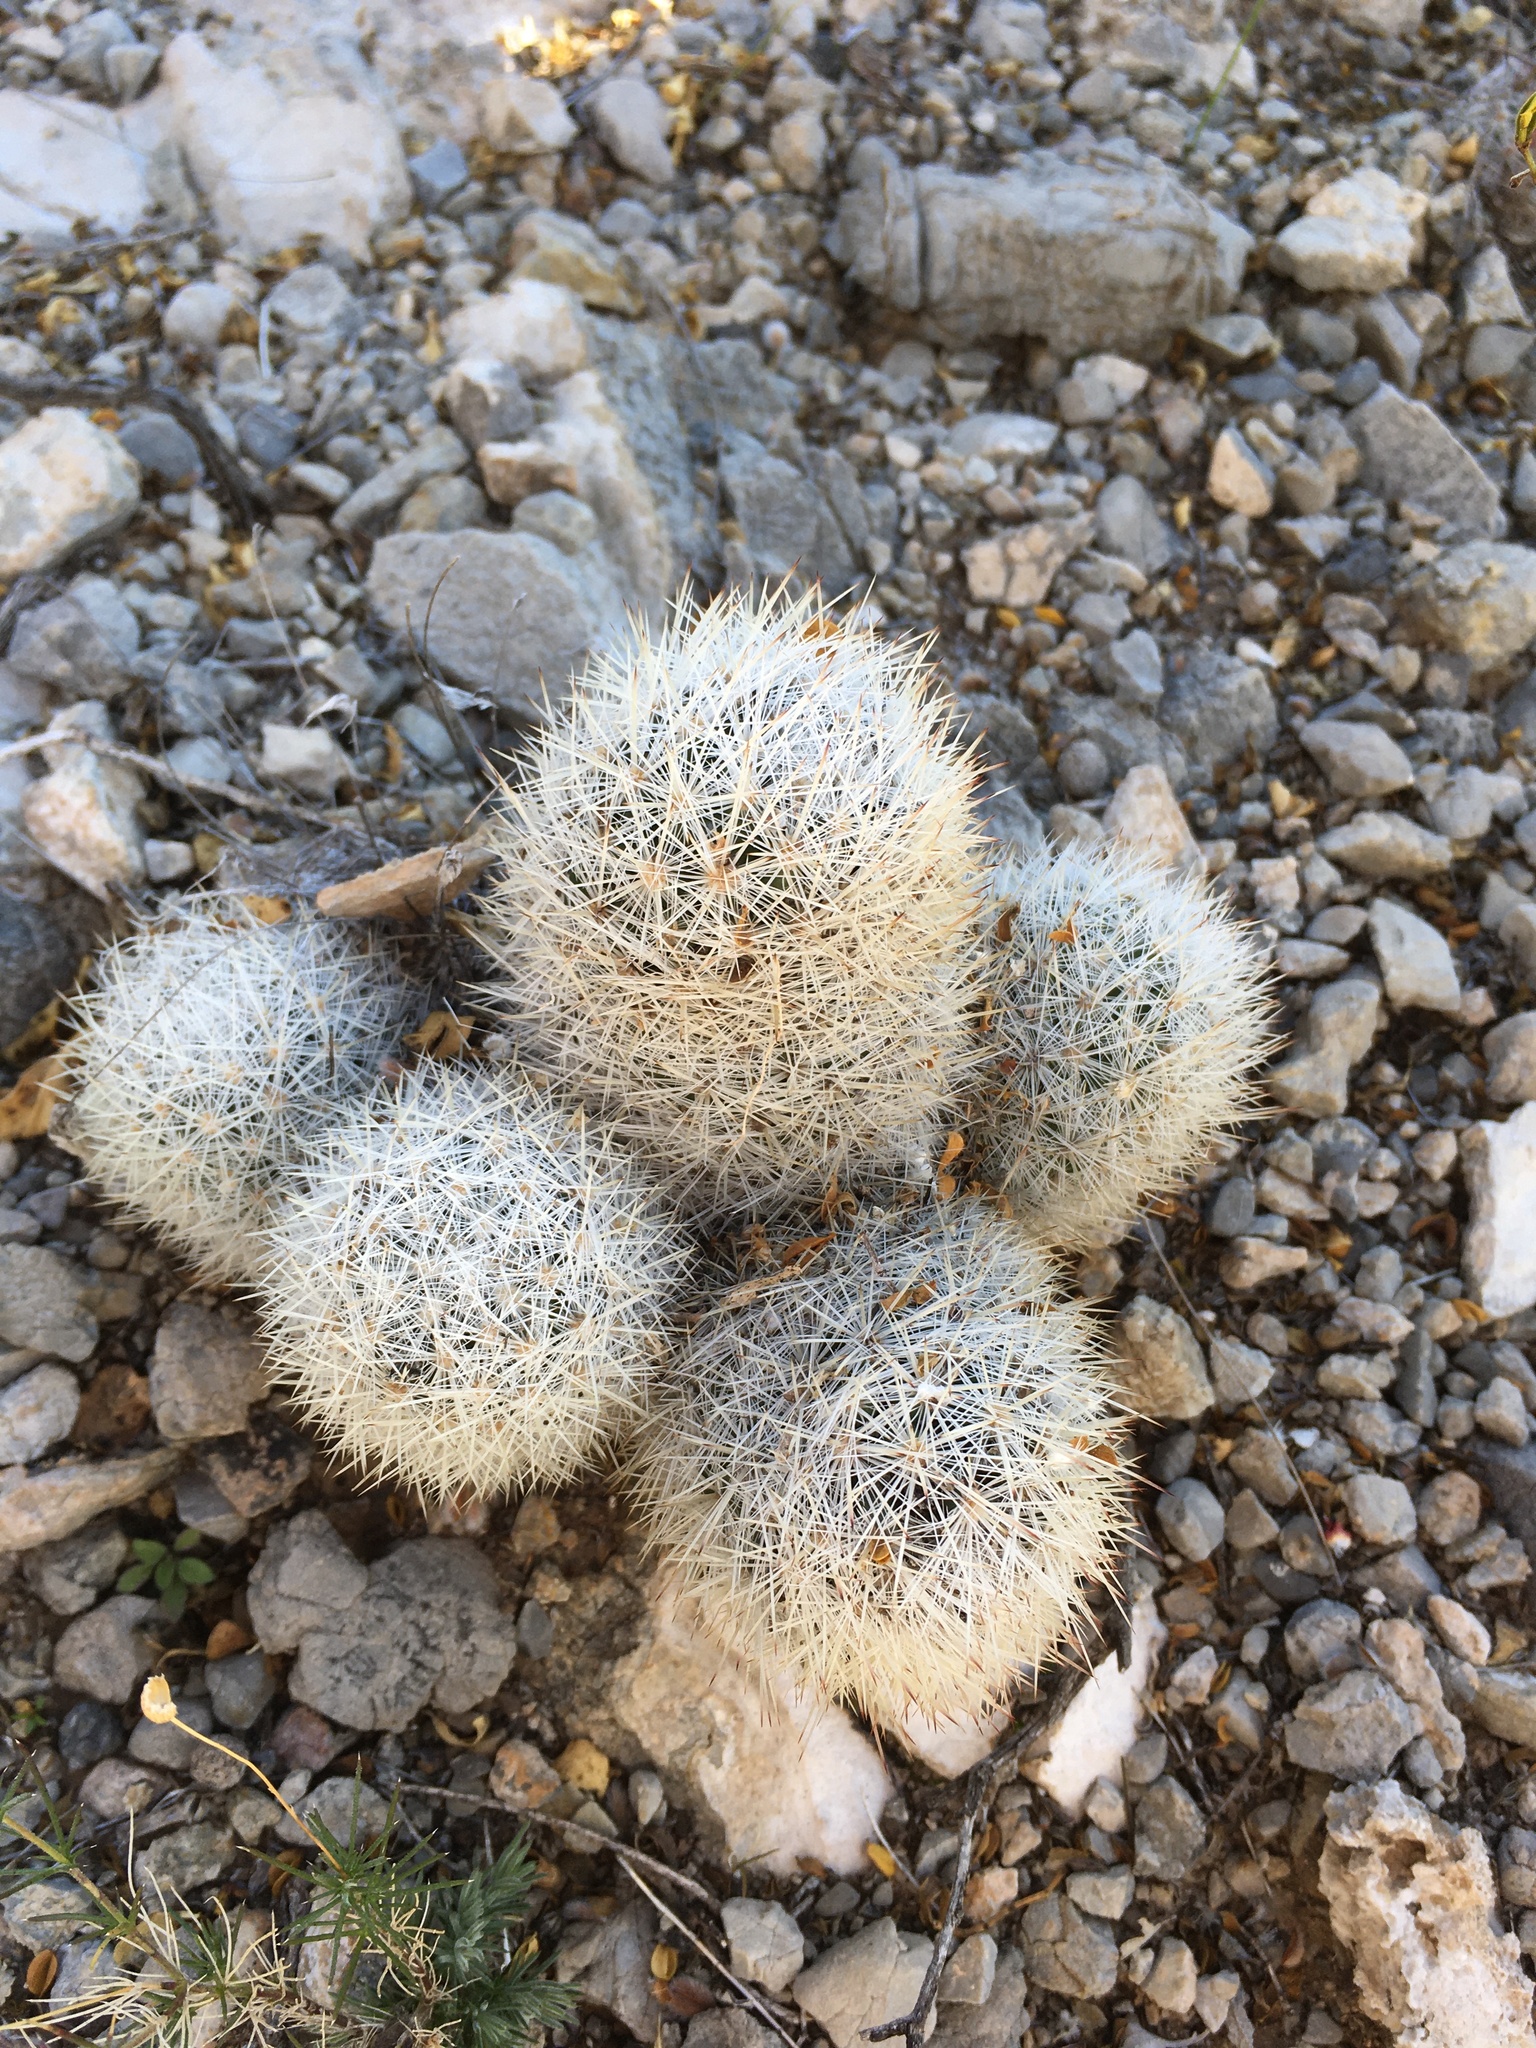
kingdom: Plantae
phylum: Tracheophyta
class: Magnoliopsida
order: Caryophyllales
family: Cactaceae
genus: Pelecyphora
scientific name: Pelecyphora sneedii
